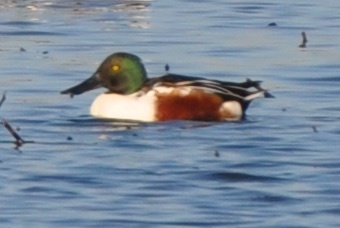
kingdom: Animalia
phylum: Chordata
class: Aves
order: Anseriformes
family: Anatidae
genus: Spatula
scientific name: Spatula clypeata
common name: Northern shoveler
